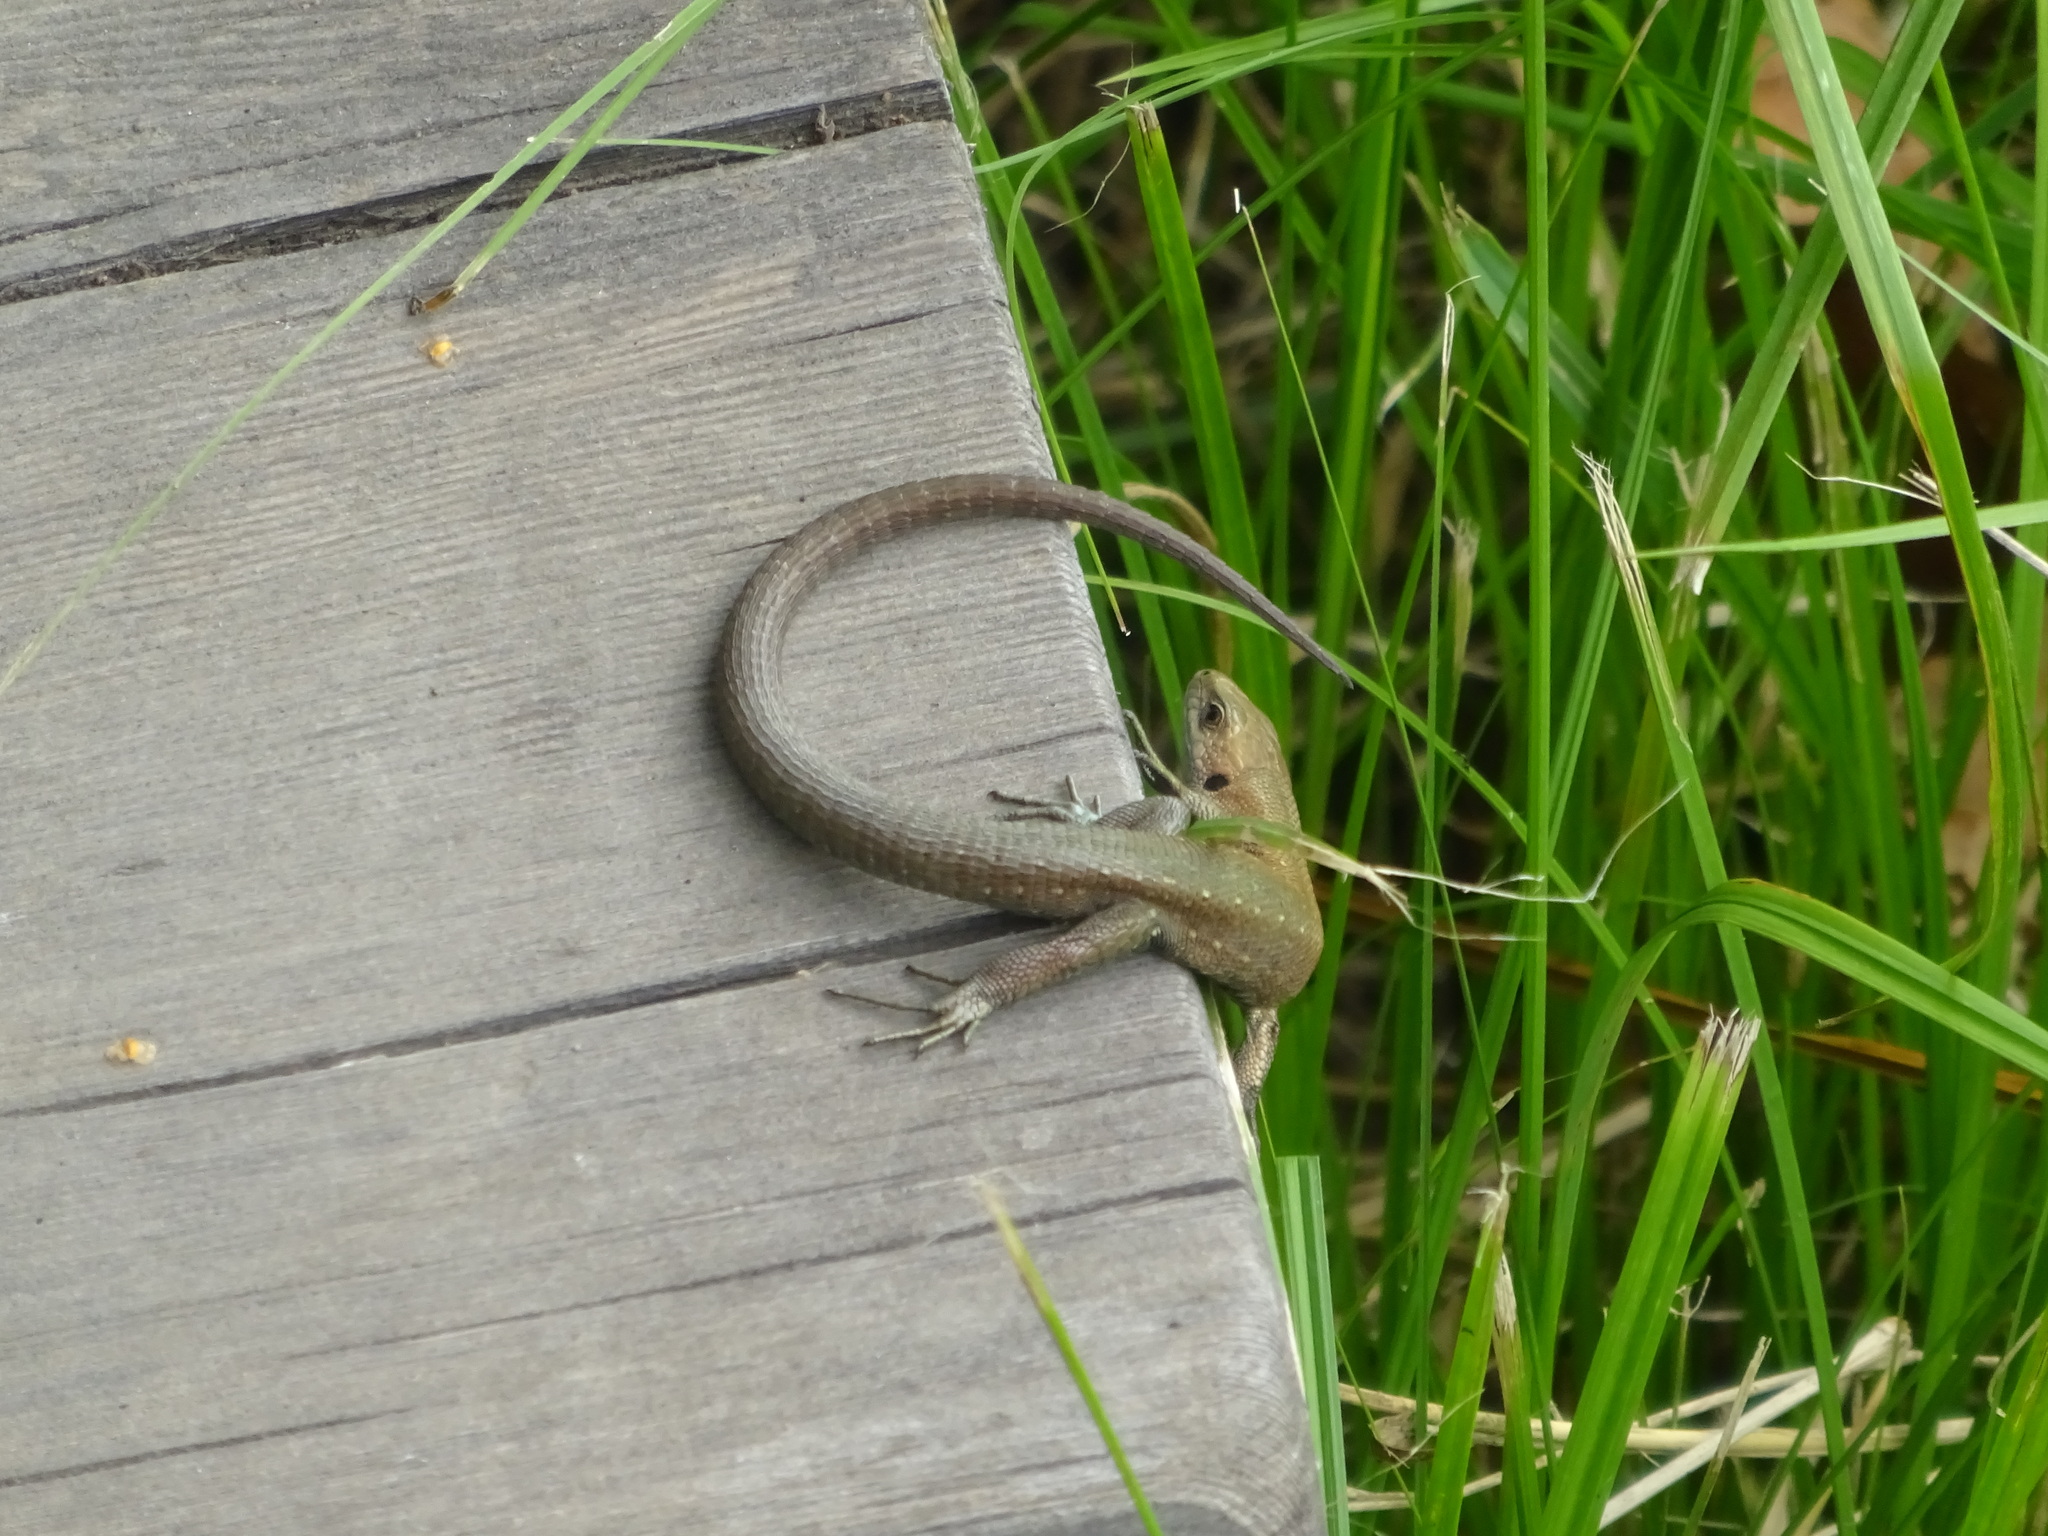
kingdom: Animalia
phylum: Chordata
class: Squamata
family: Lacertidae
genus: Zootoca
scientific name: Zootoca vivipara
